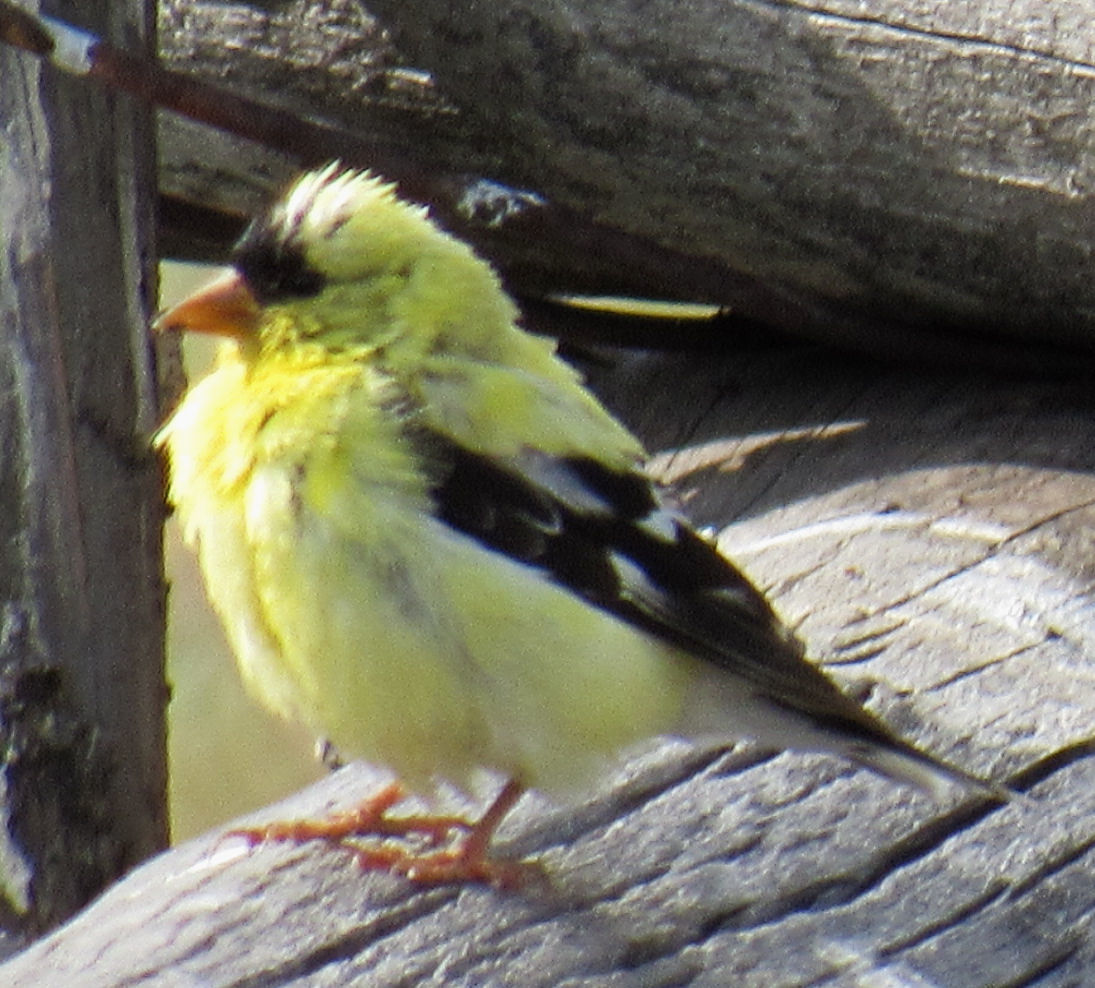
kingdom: Animalia
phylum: Chordata
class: Aves
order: Passeriformes
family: Fringillidae
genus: Spinus
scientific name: Spinus tristis
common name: American goldfinch
